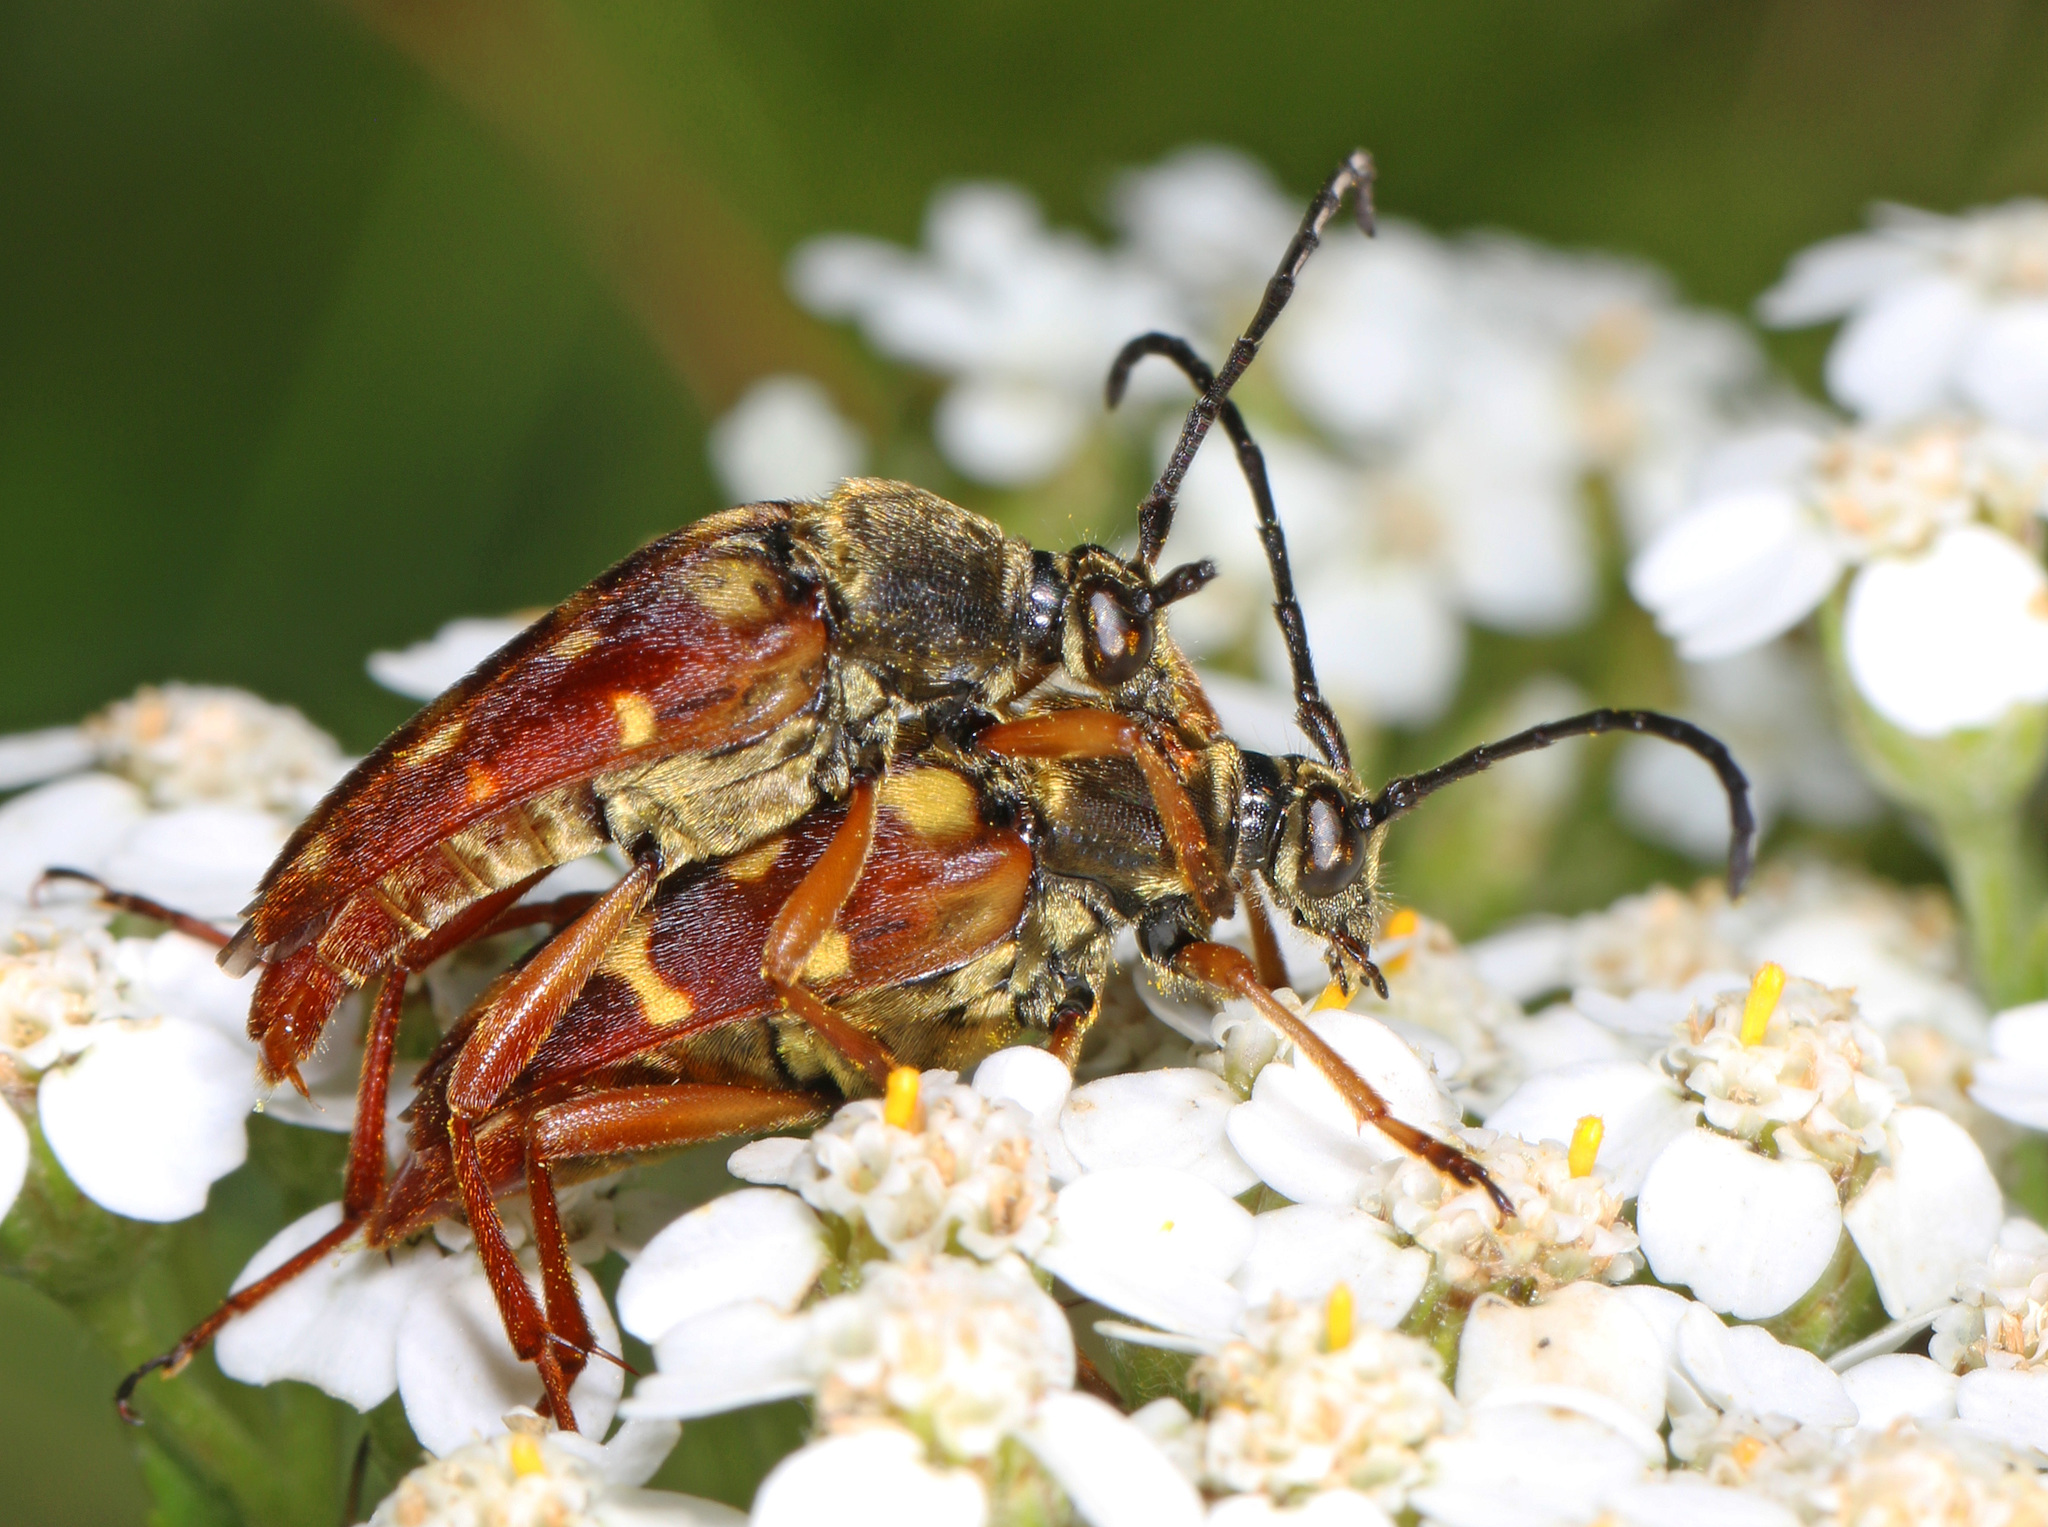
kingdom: Animalia
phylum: Arthropoda
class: Insecta
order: Coleoptera
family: Cerambycidae
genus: Typocerus
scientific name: Typocerus velutinus
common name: Banded longhorn beetle
